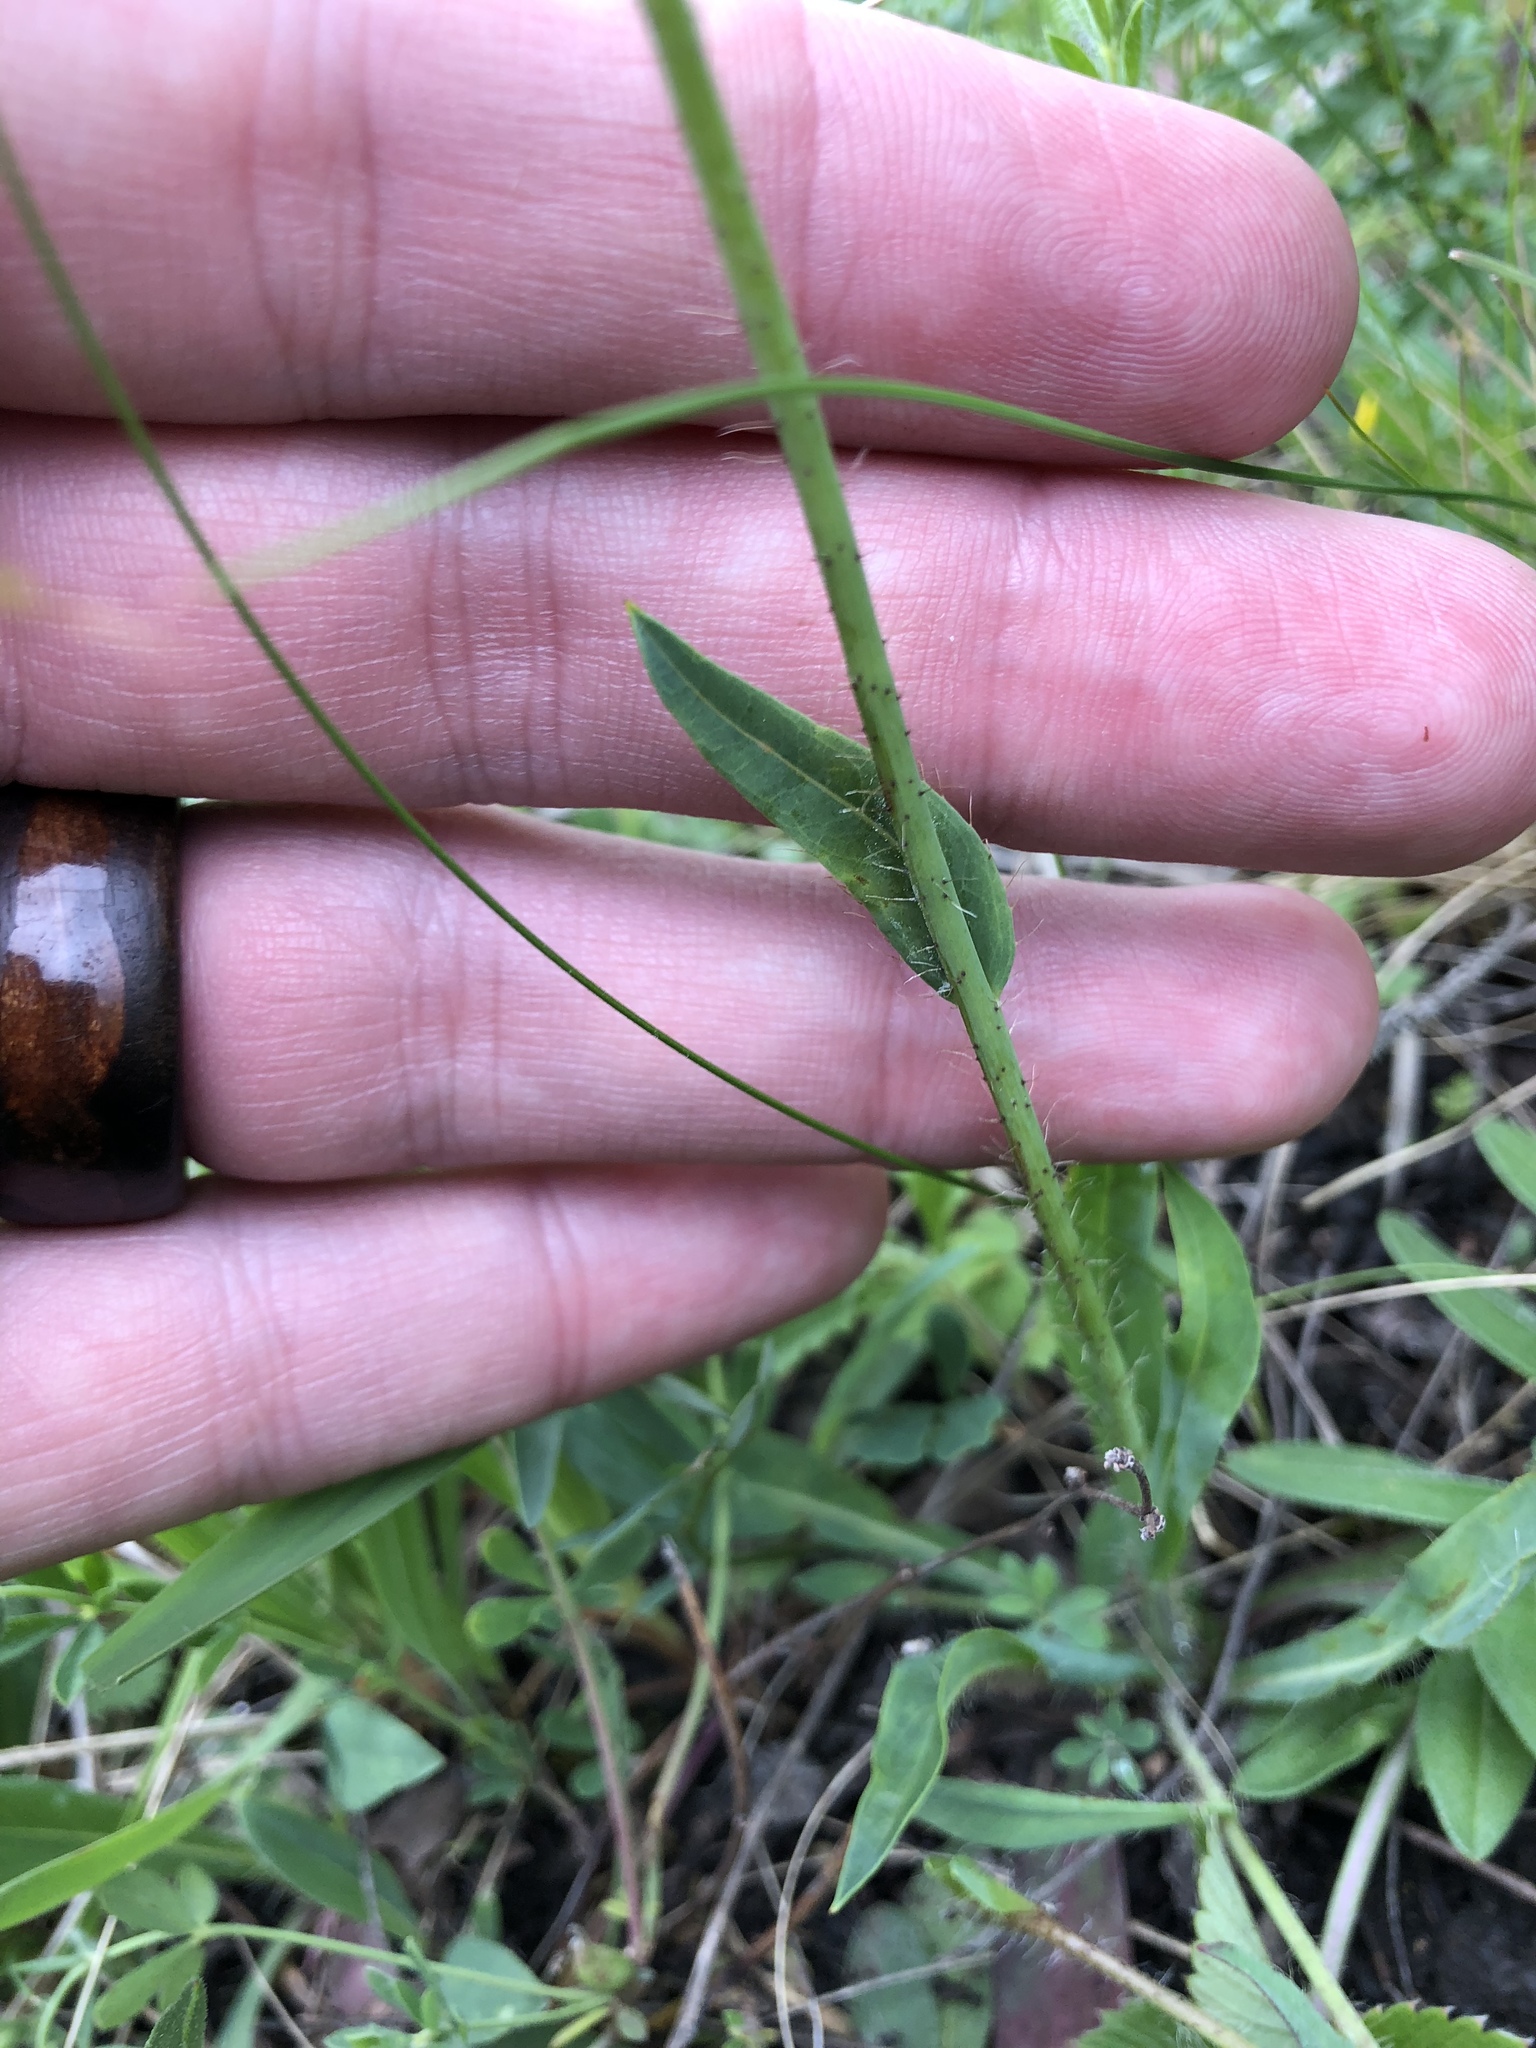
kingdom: Plantae
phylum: Tracheophyta
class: Magnoliopsida
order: Asterales
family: Asteraceae
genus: Pilosella
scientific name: Pilosella caespitosa
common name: Yellow fox-and-cubs
